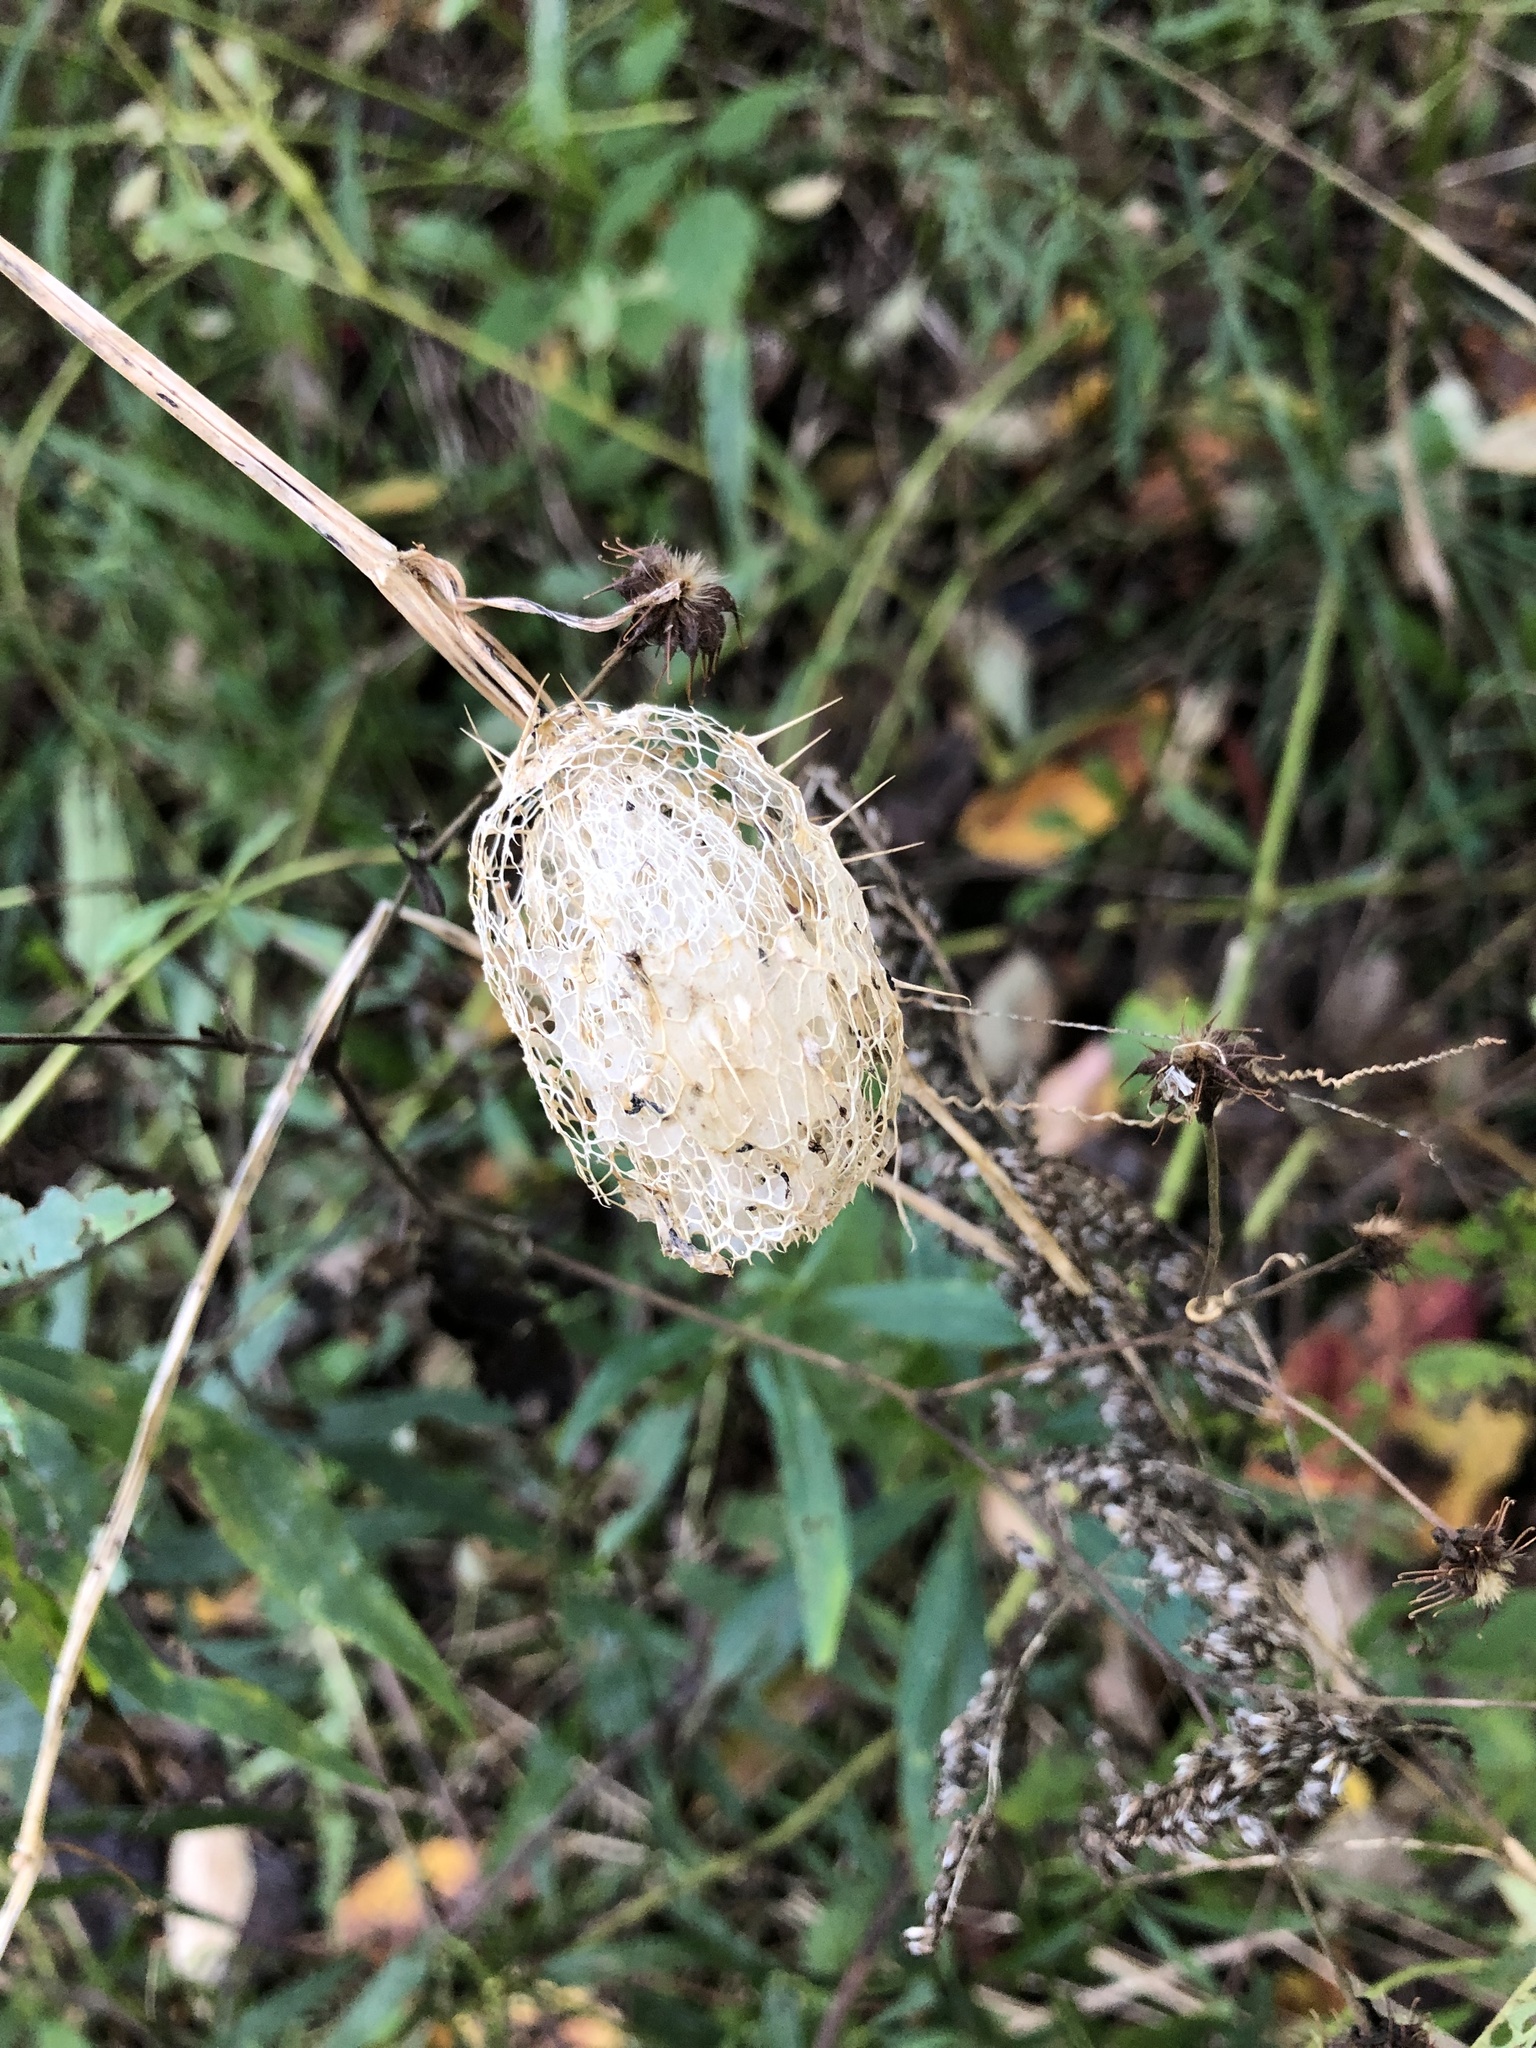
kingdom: Plantae
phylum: Tracheophyta
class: Magnoliopsida
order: Cucurbitales
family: Cucurbitaceae
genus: Echinocystis
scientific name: Echinocystis lobata
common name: Wild cucumber
